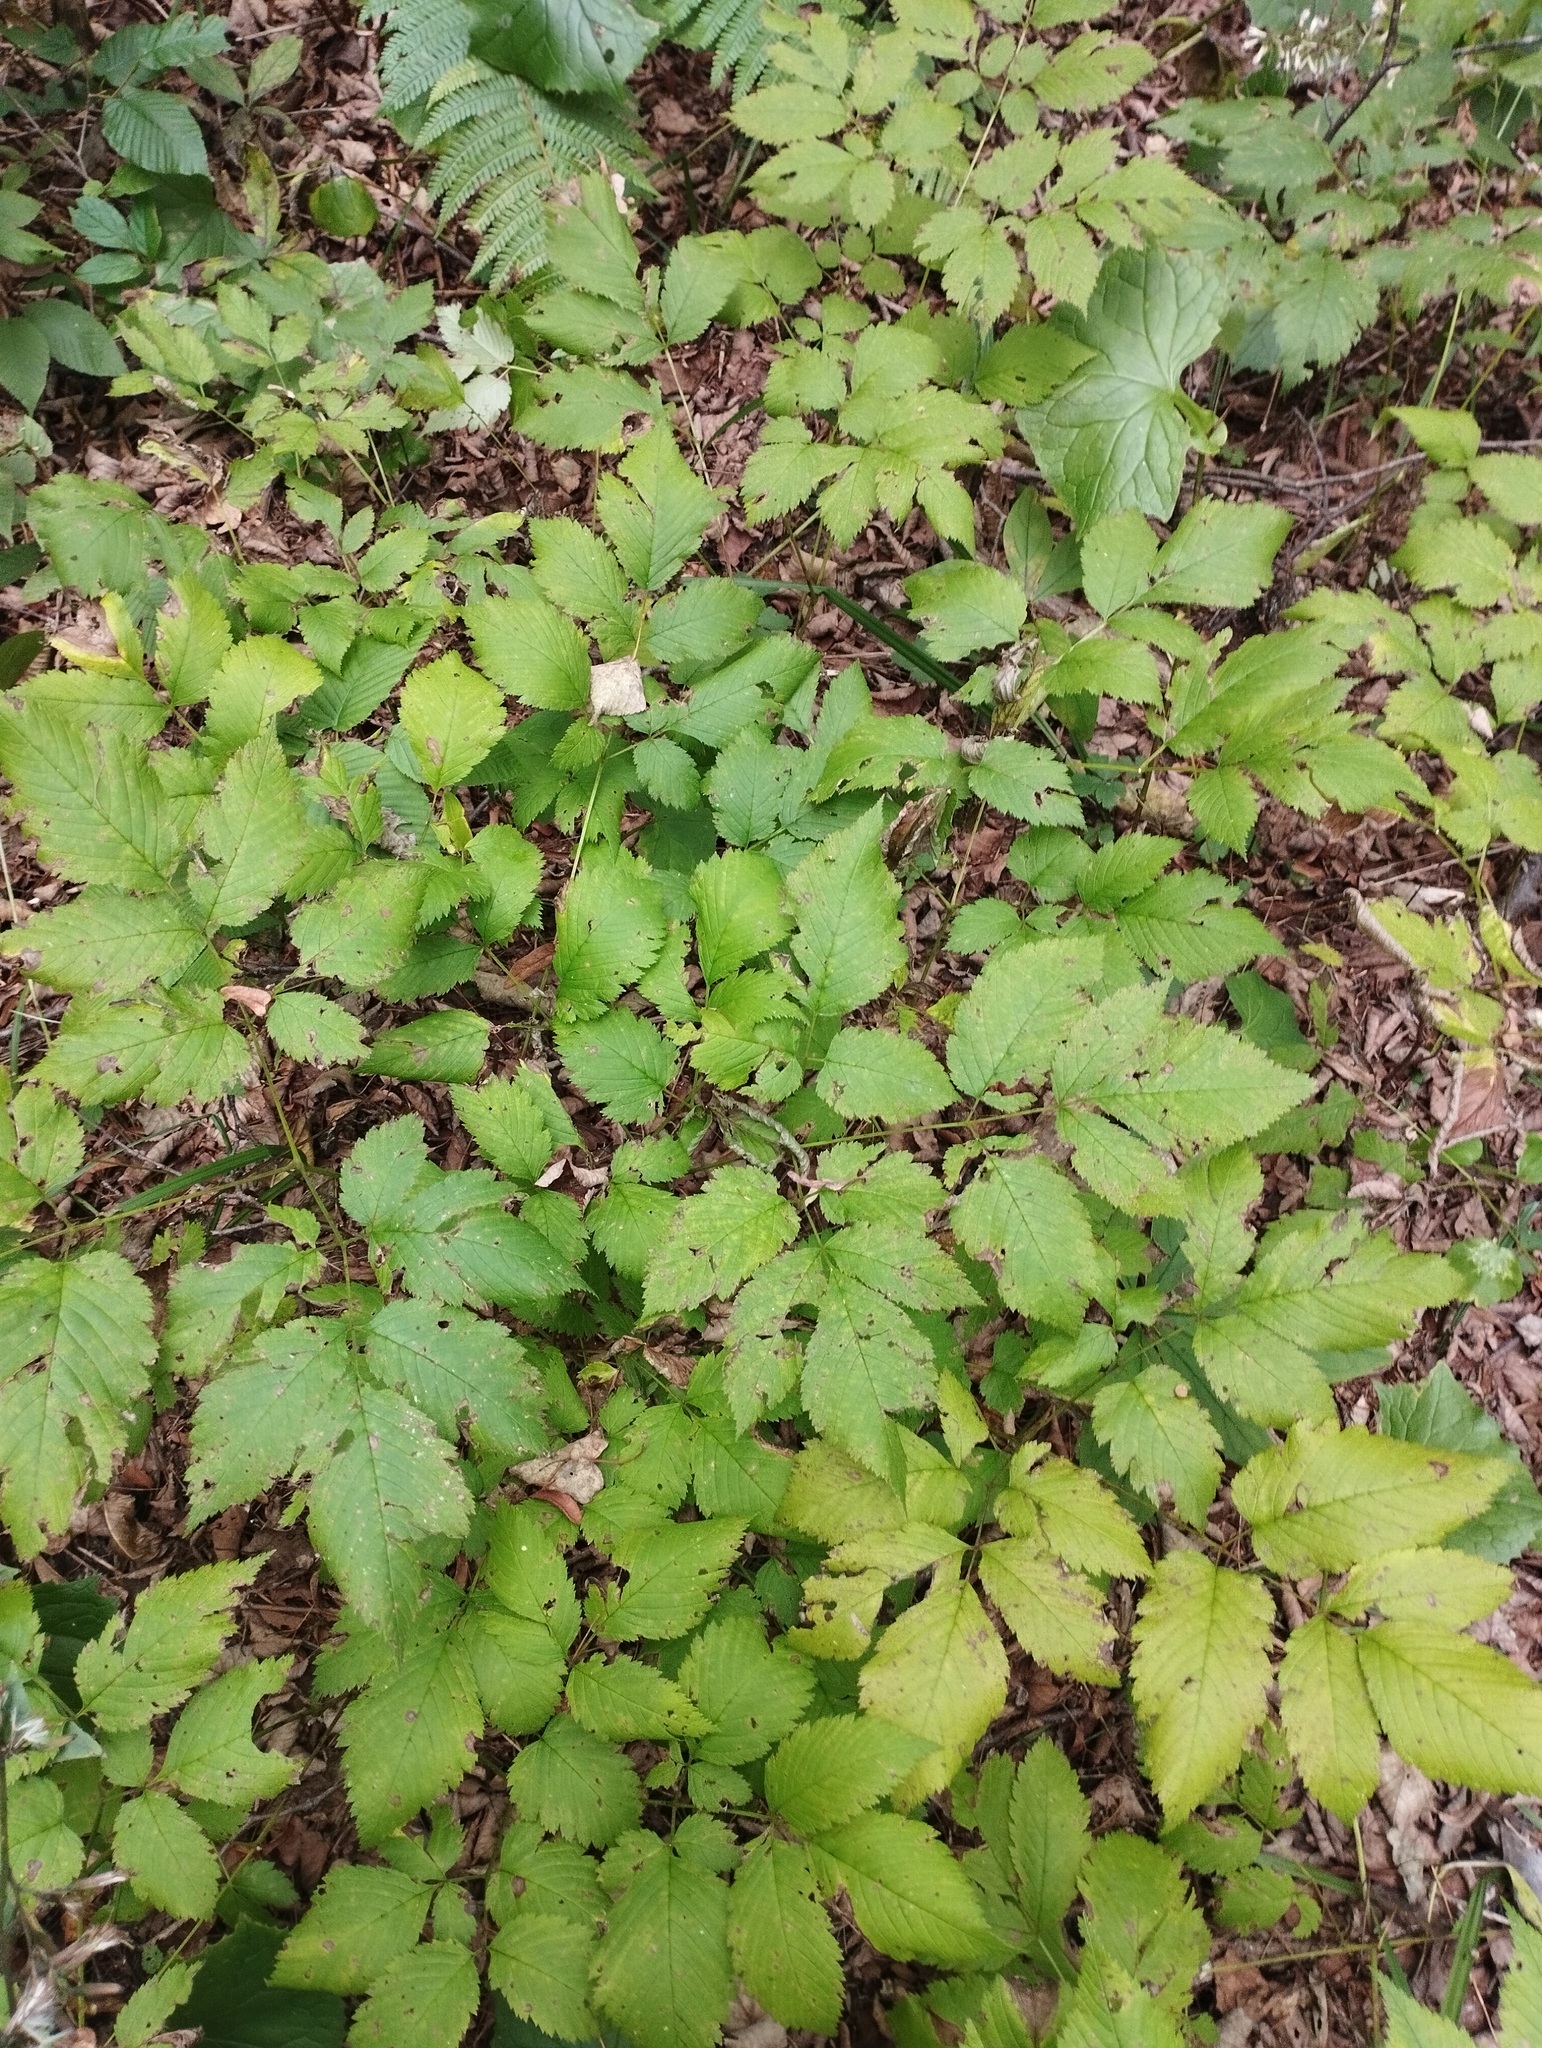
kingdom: Plantae
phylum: Tracheophyta
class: Magnoliopsida
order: Rosales
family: Rosaceae
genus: Aruncus
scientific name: Aruncus dioicus
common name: Buck's-beard
